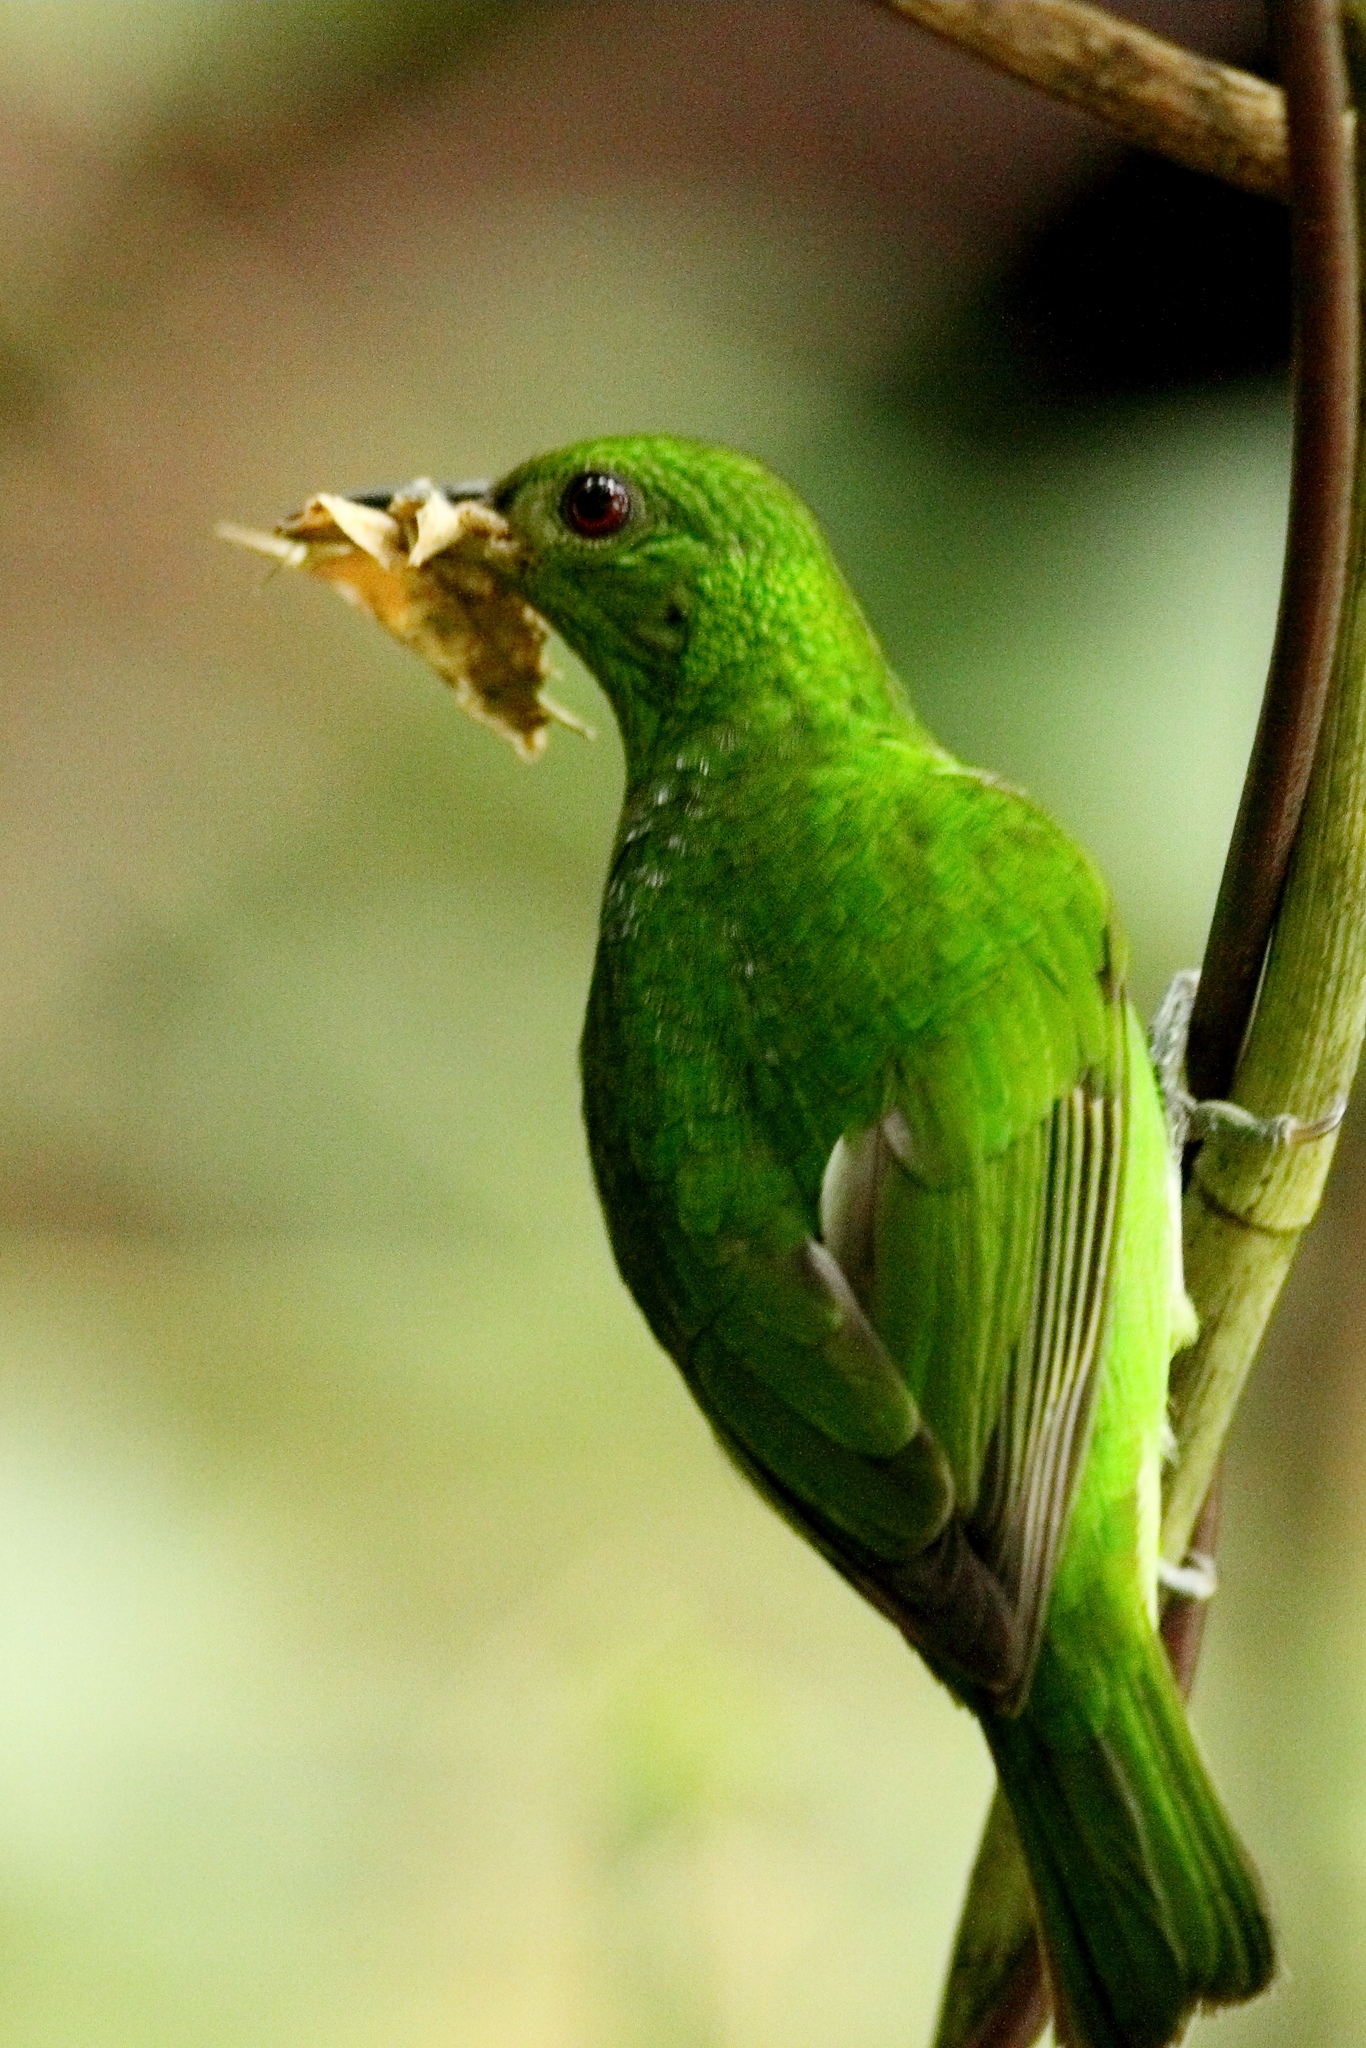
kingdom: Animalia
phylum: Chordata
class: Aves
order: Passeriformes
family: Thraupidae
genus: Chlorophanes
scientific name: Chlorophanes spiza
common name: Green honeycreeper
